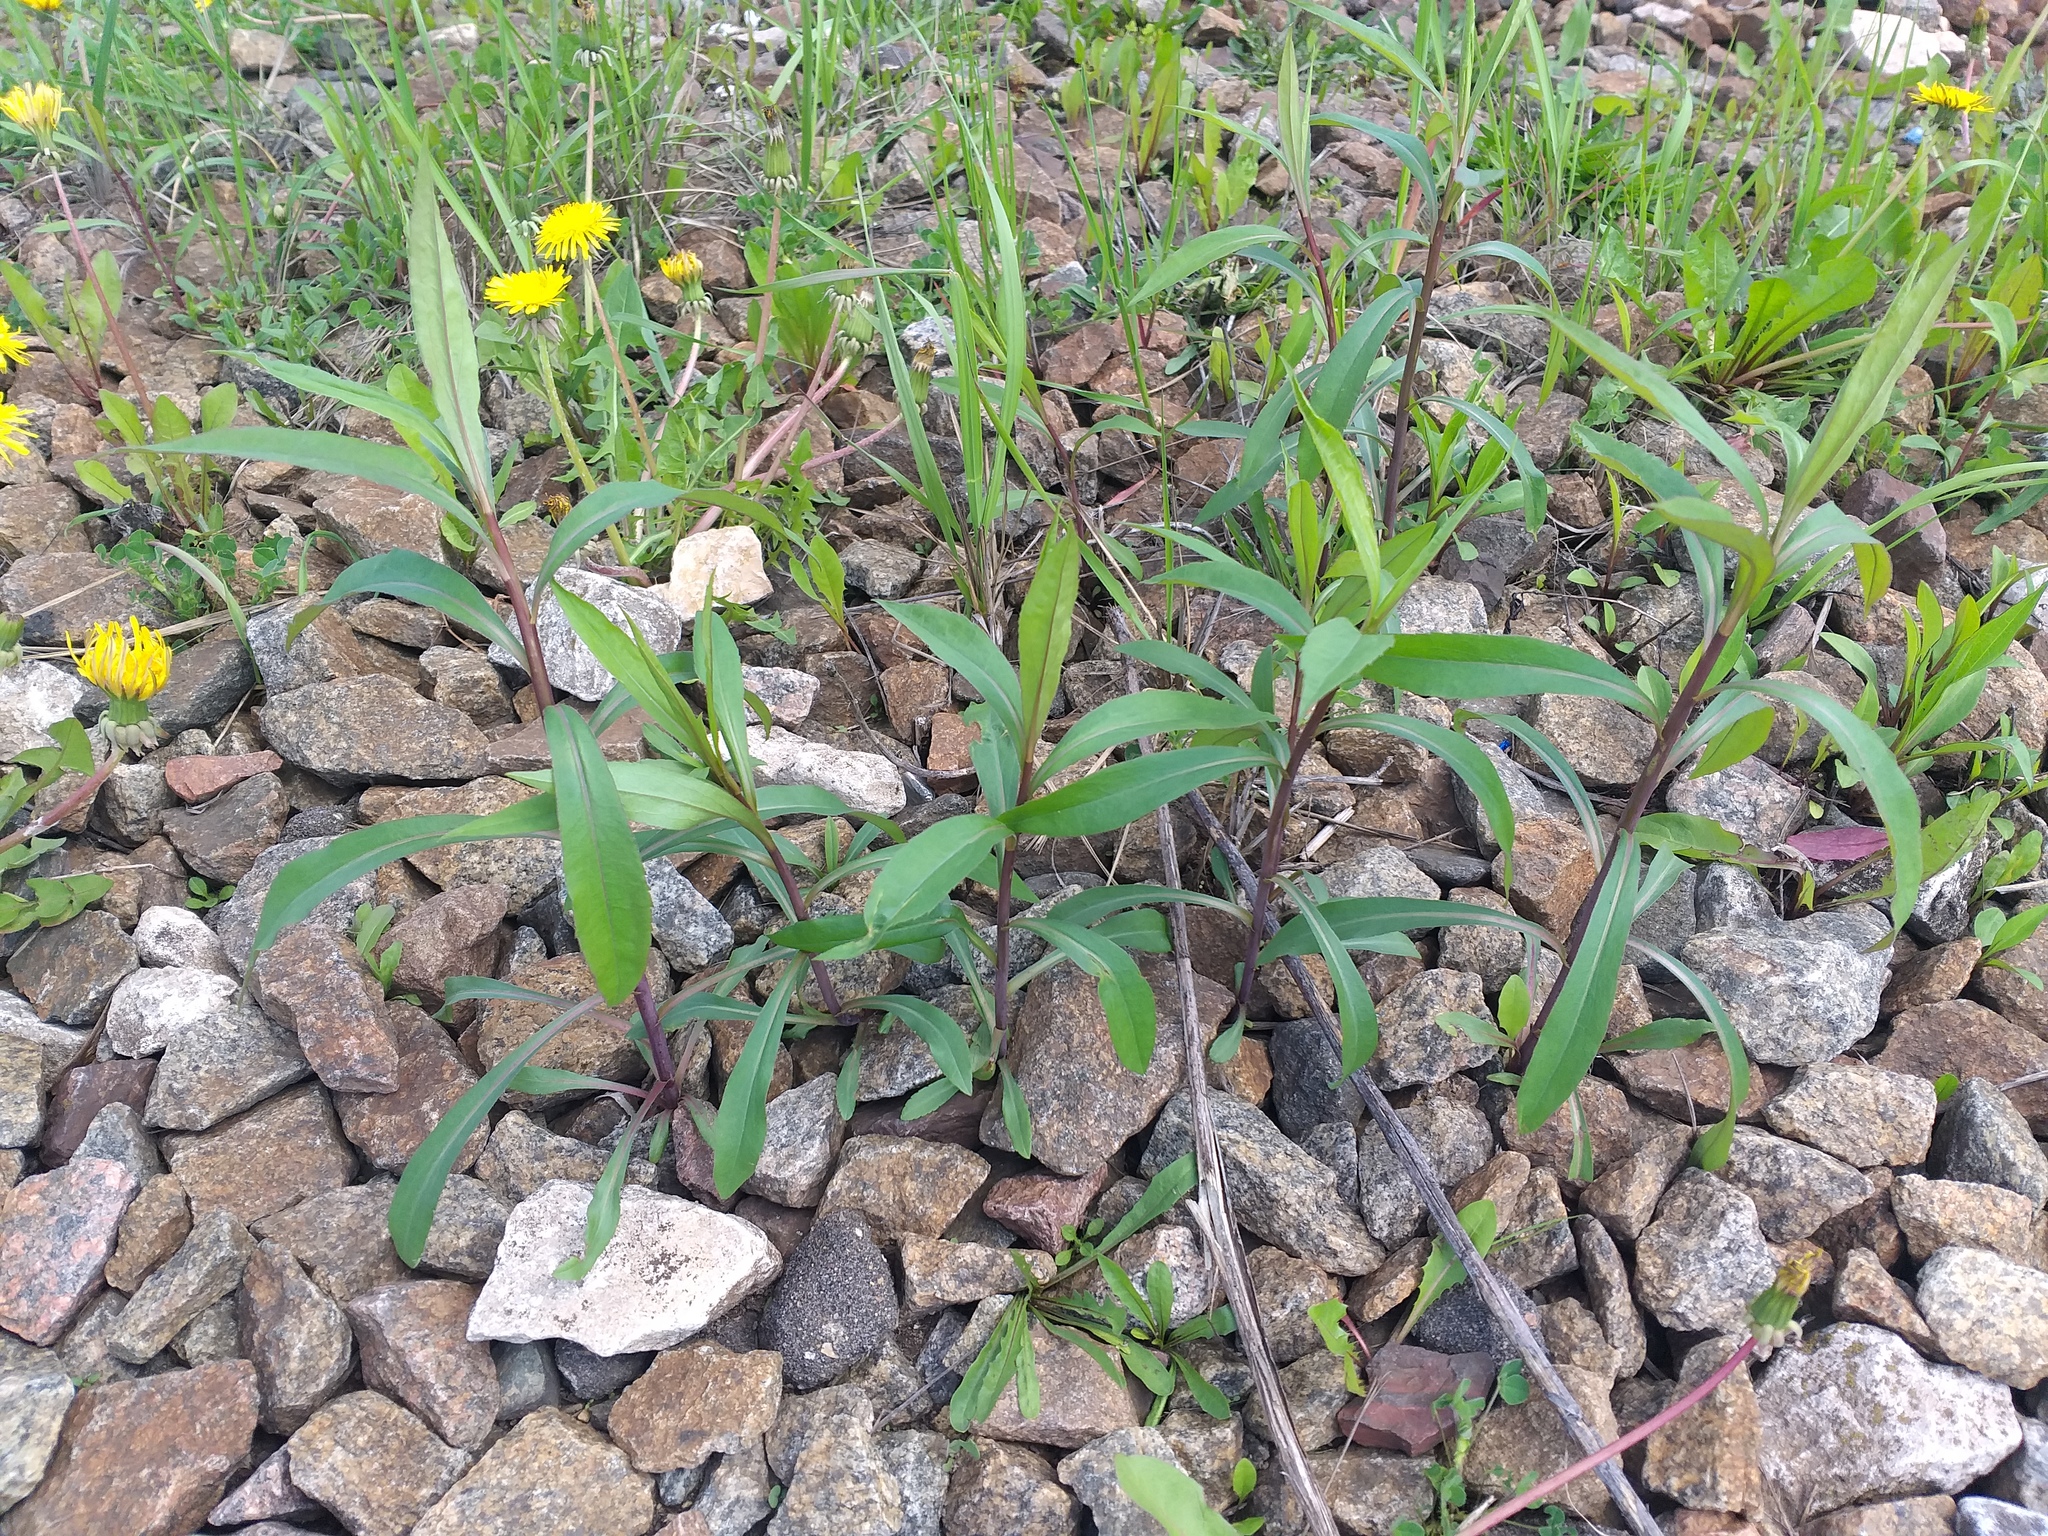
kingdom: Plantae
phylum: Tracheophyta
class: Magnoliopsida
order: Asterales
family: Asteraceae
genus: Solidago
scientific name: Solidago gigantea
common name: Giant goldenrod
